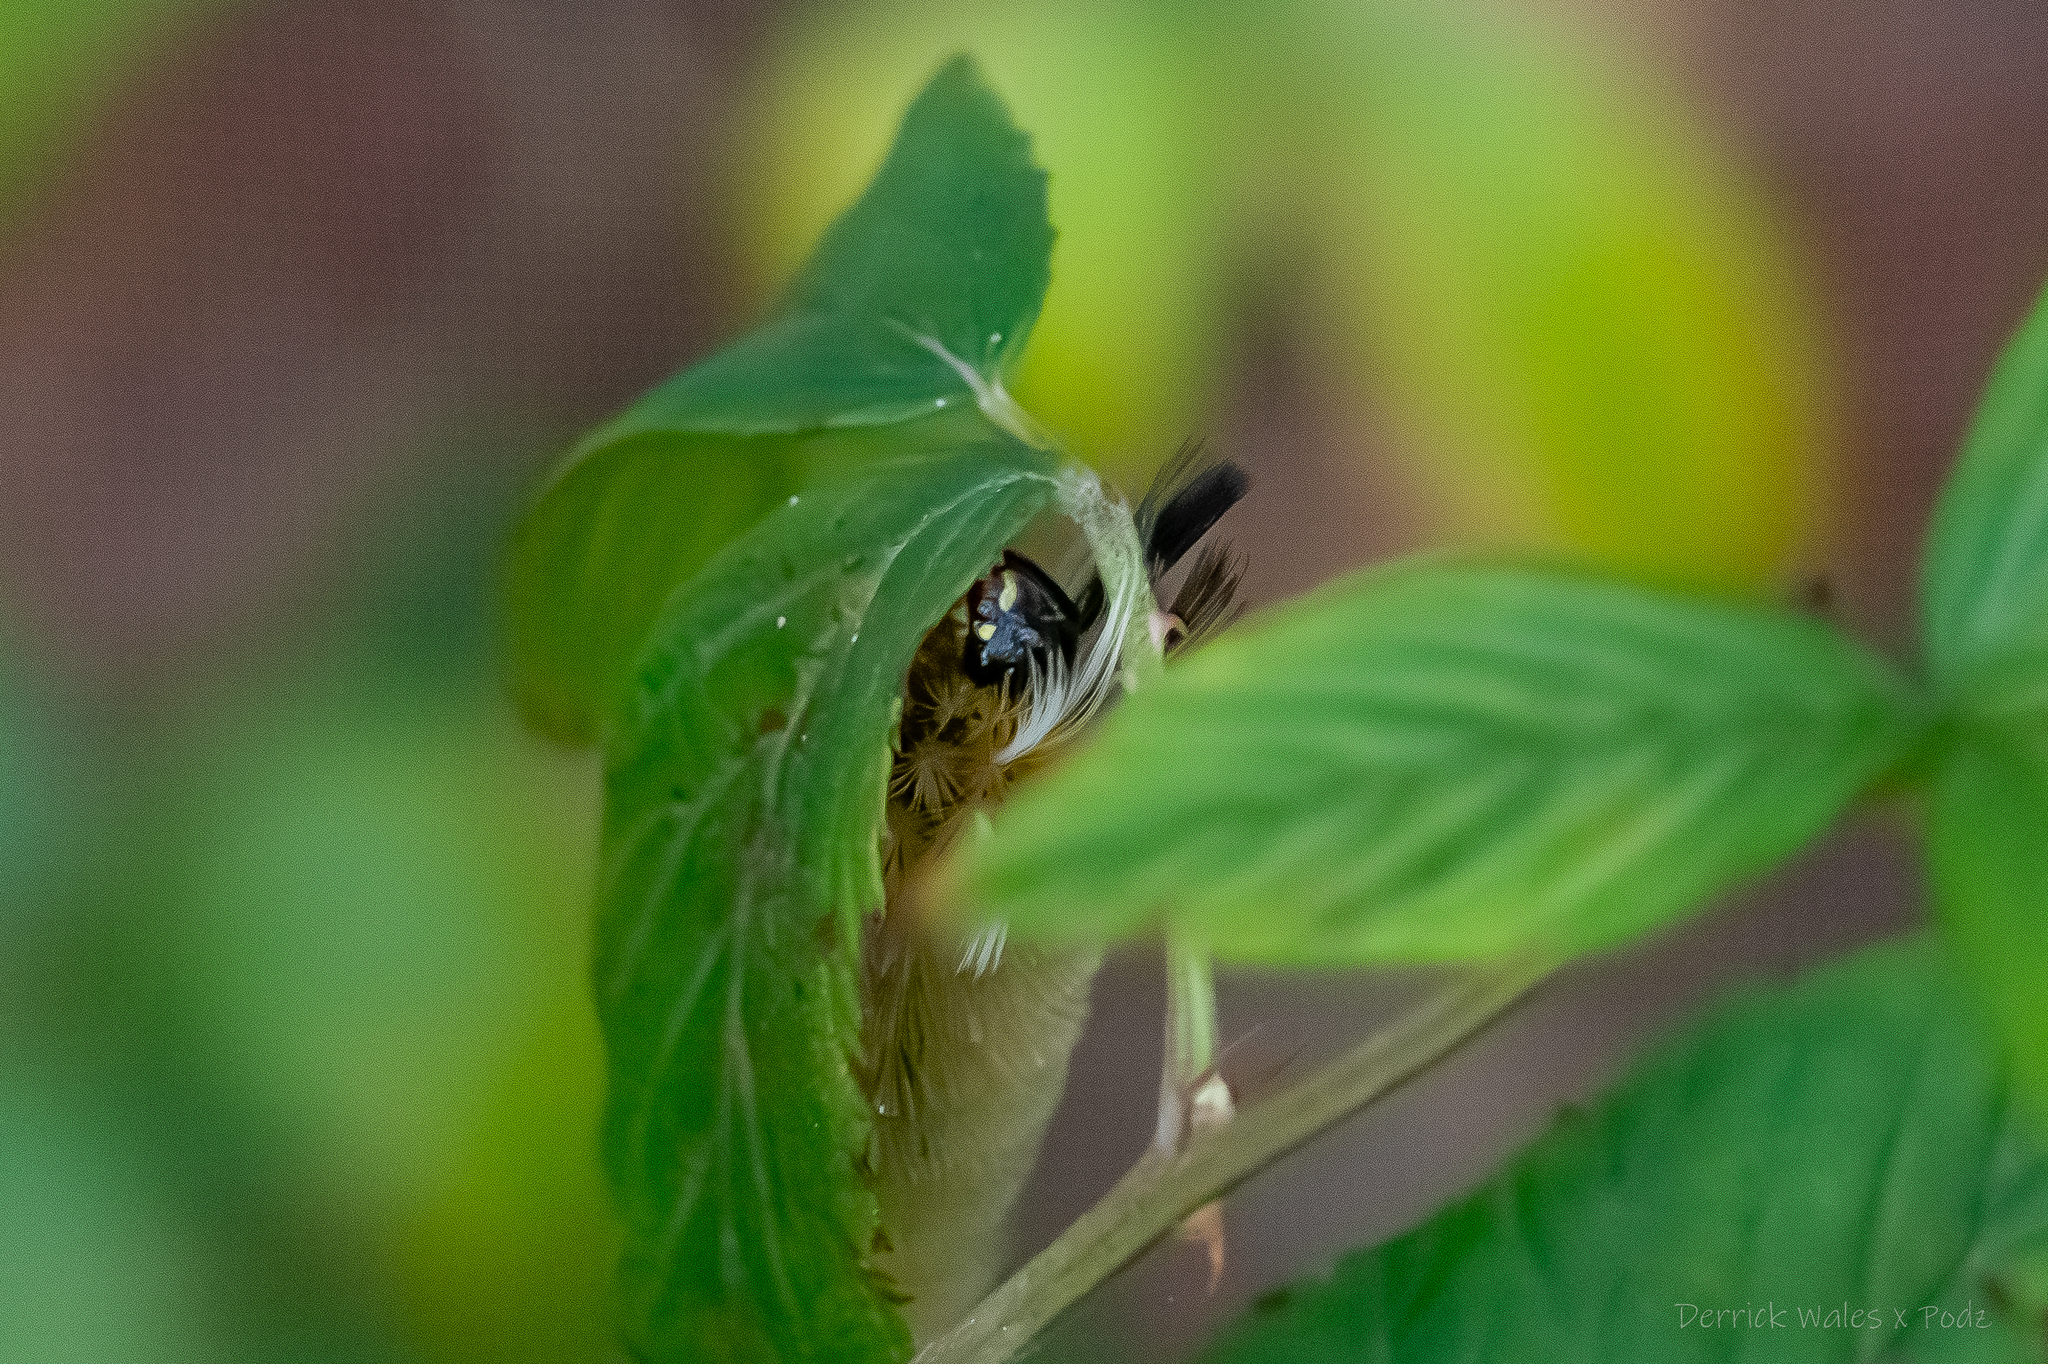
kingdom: Animalia
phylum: Arthropoda
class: Insecta
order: Lepidoptera
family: Erebidae
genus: Halysidota
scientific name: Halysidota tessellaris
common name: Banded tussock moth
